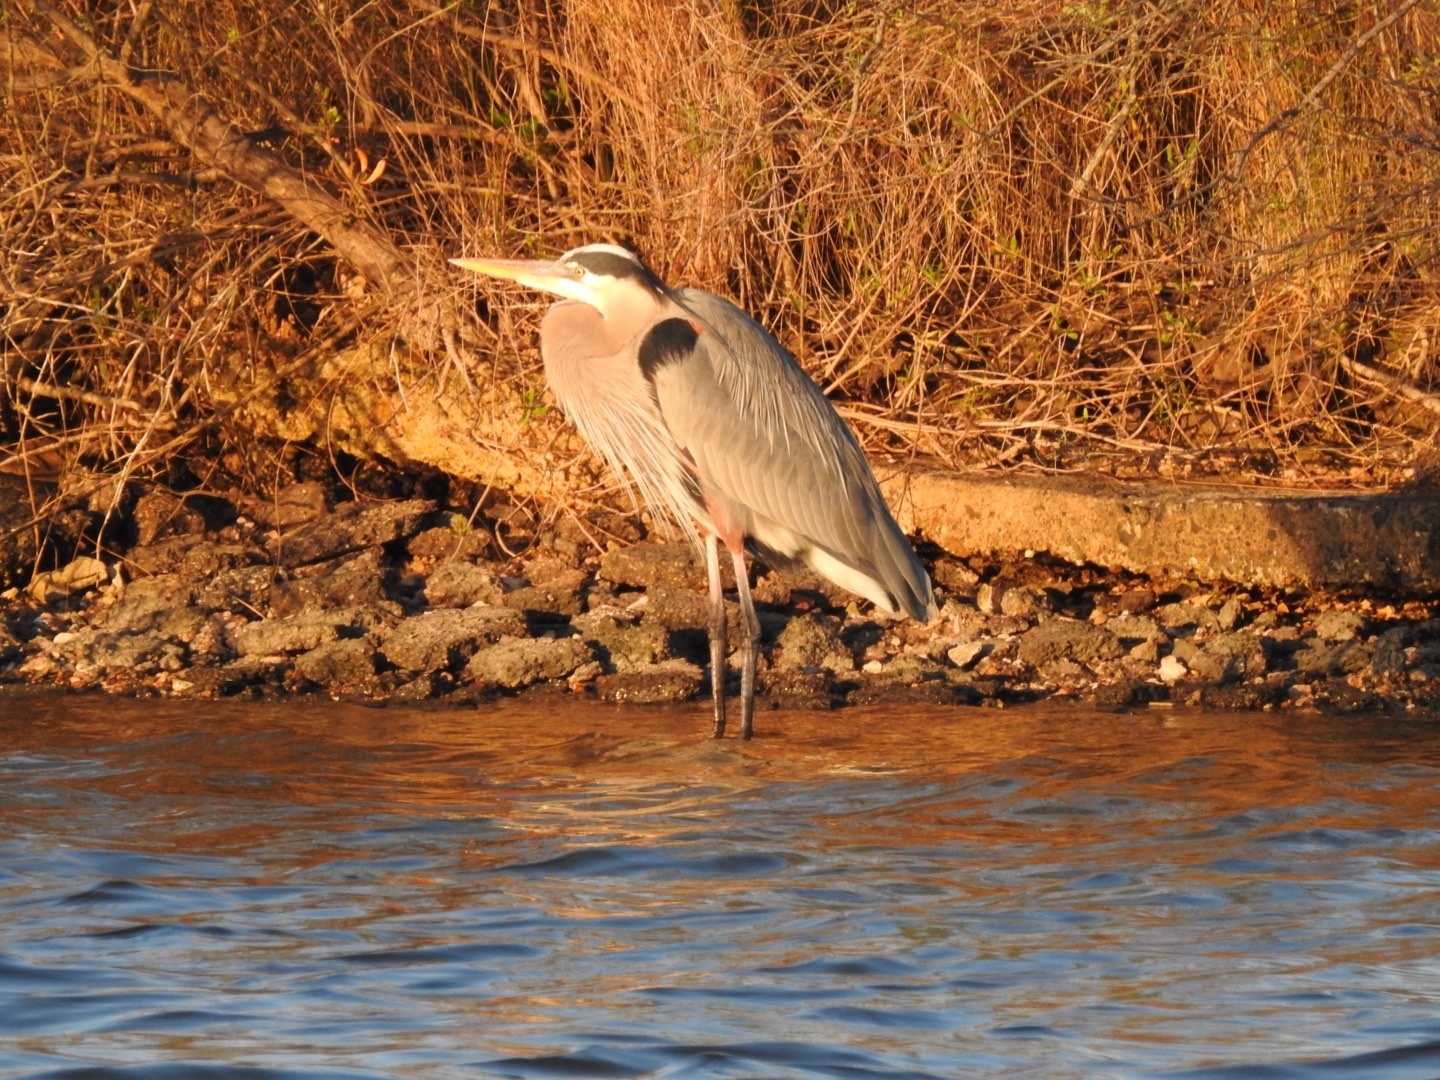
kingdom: Animalia
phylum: Chordata
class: Aves
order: Pelecaniformes
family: Ardeidae
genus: Ardea
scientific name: Ardea herodias
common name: Great blue heron
